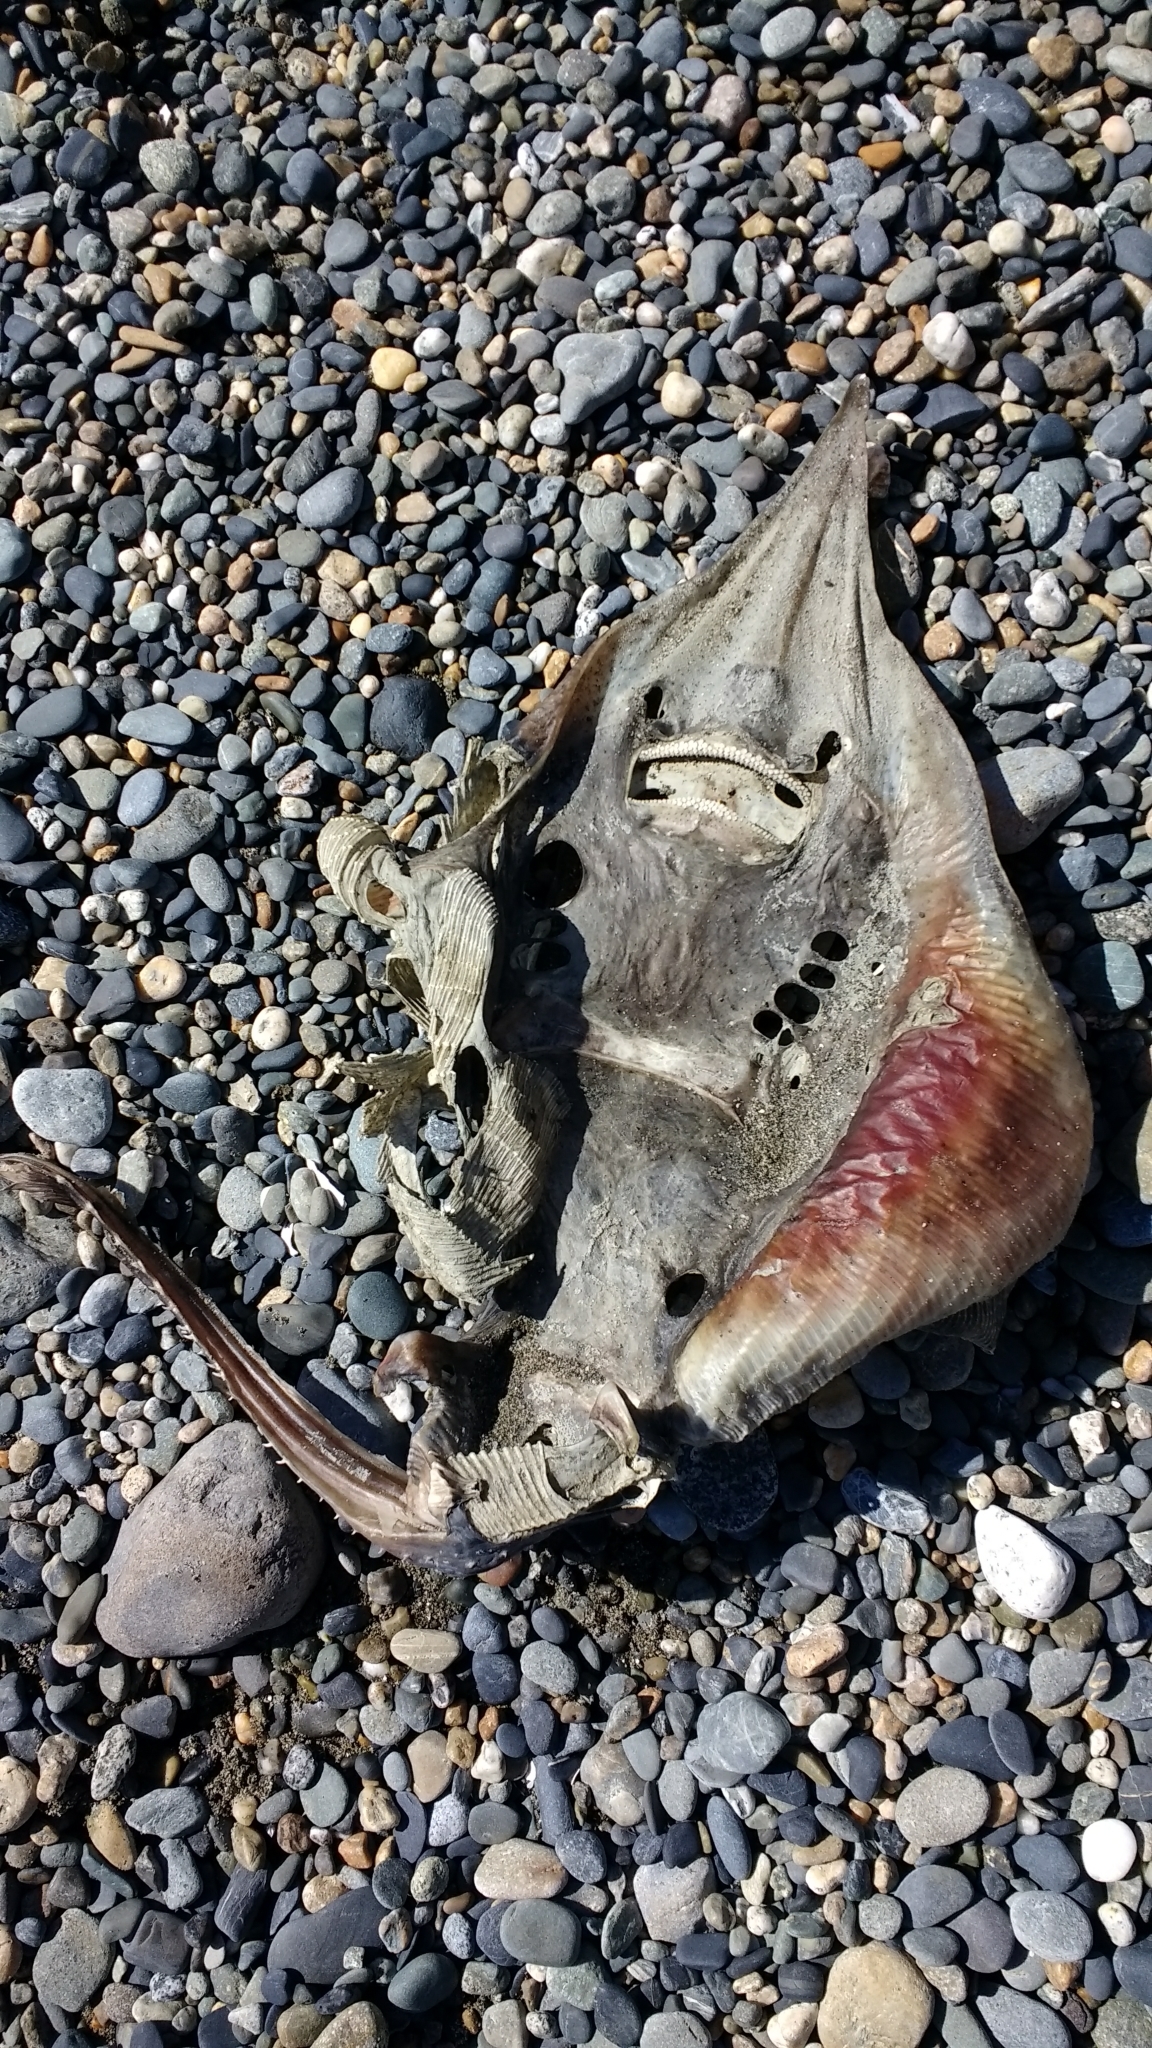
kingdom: Animalia
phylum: Chordata
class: Elasmobranchii
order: Rajiformes
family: Rajidae
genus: Zearaja
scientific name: Zearaja brevicaudata
